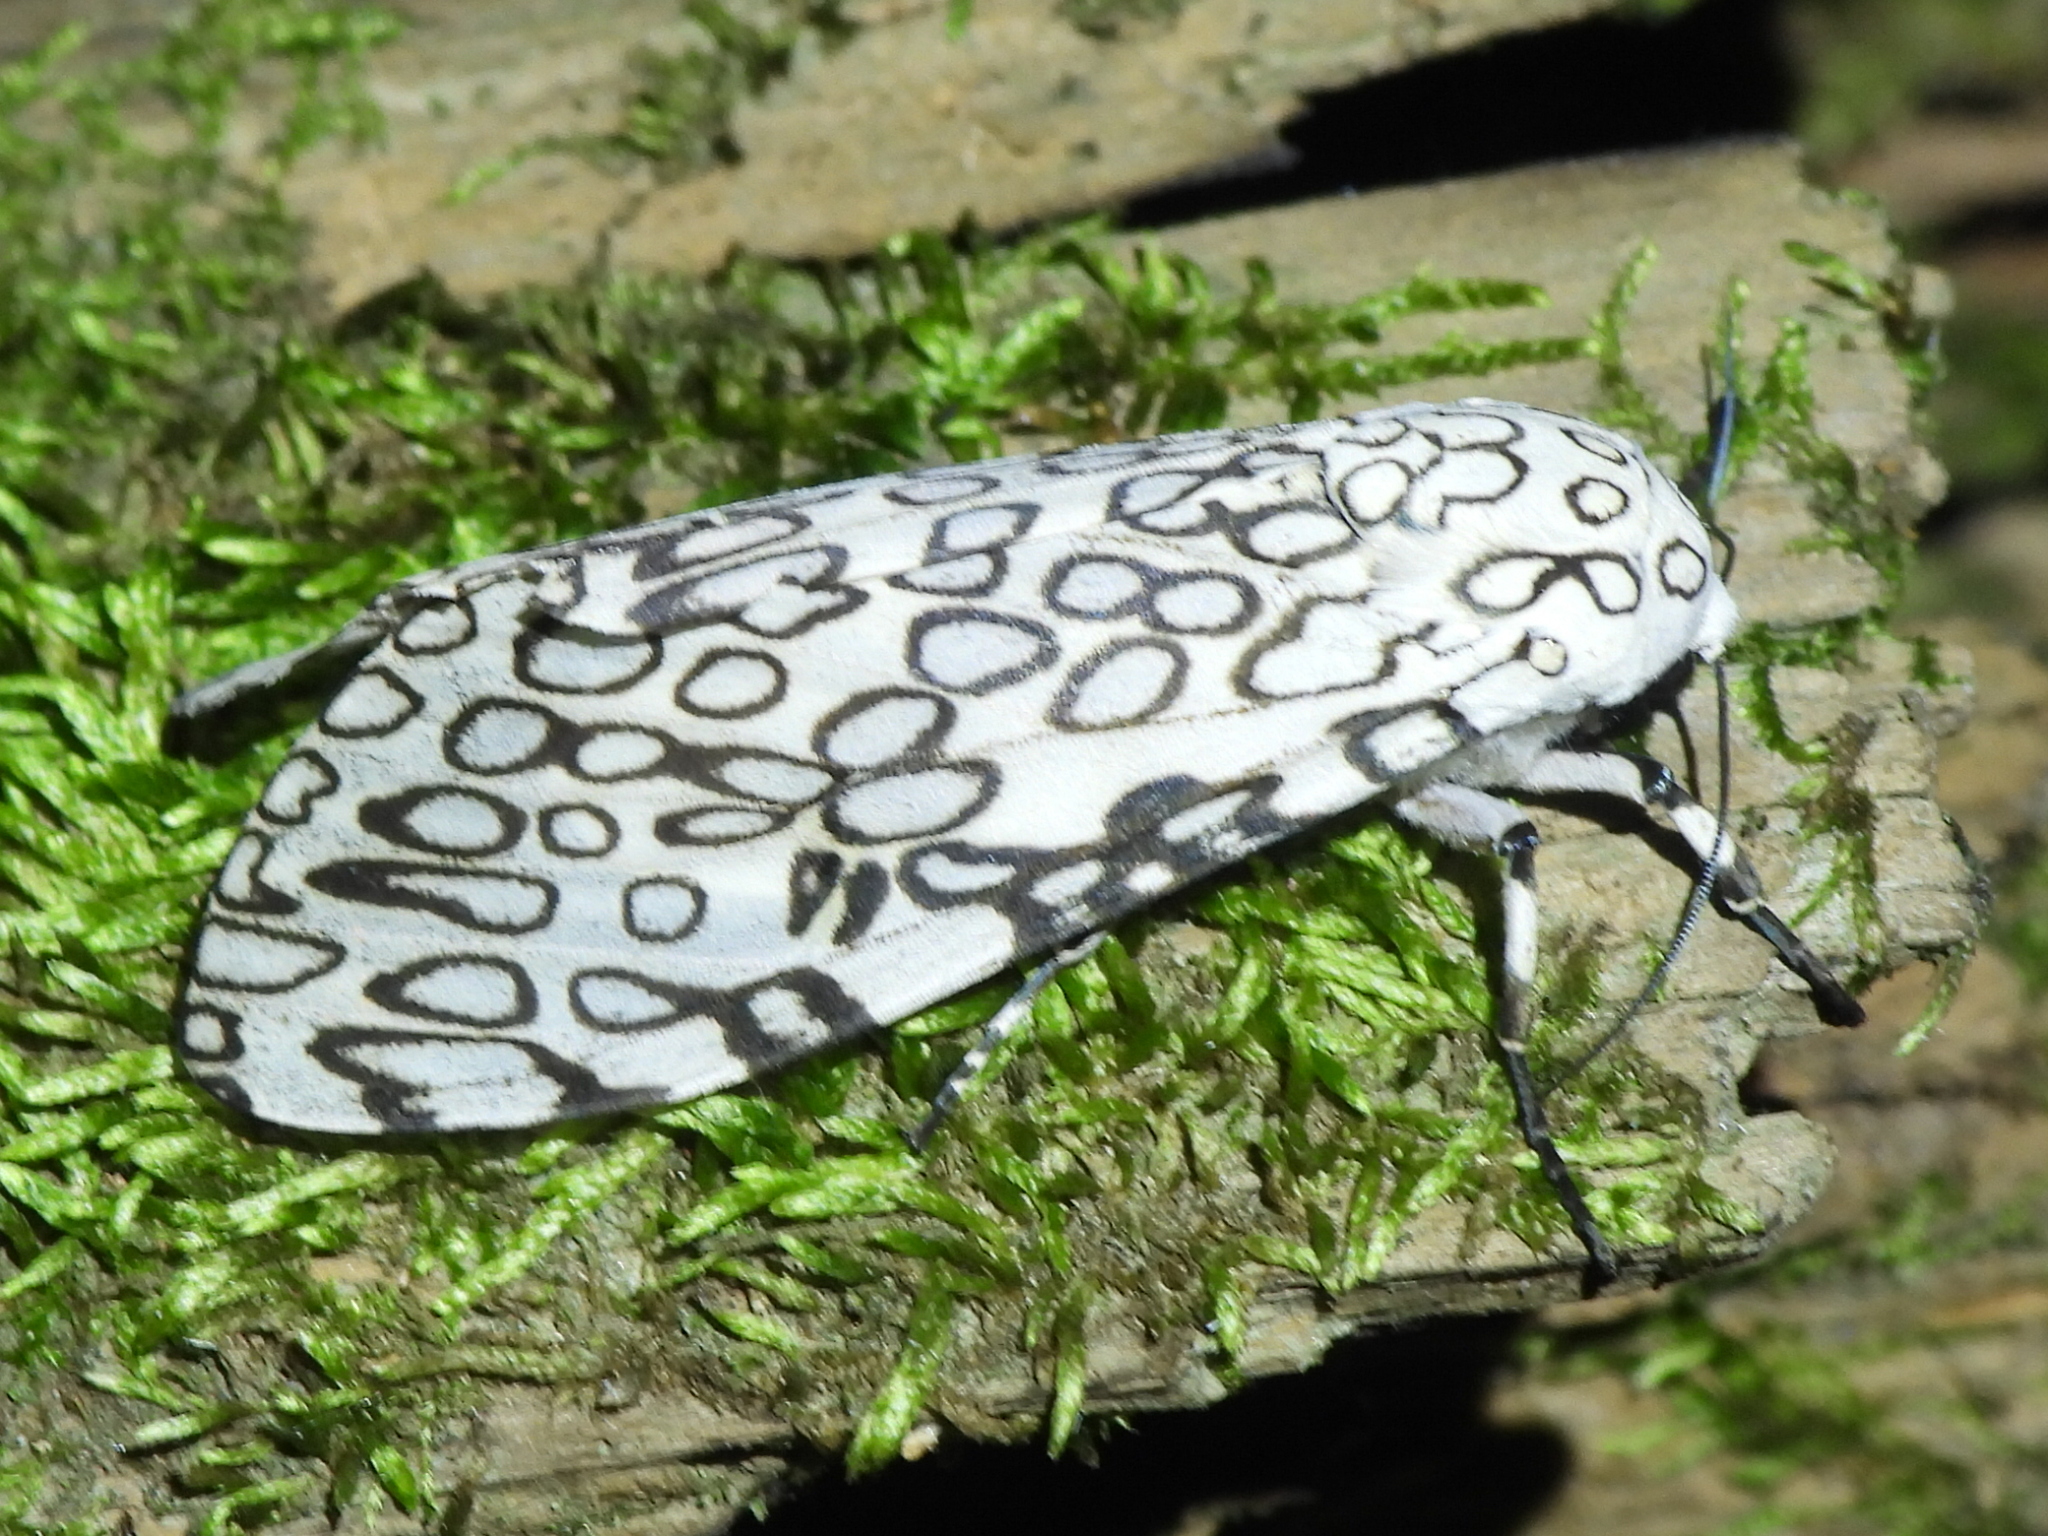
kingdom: Animalia
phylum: Arthropoda
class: Insecta
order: Lepidoptera
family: Erebidae
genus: Hypercompe
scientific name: Hypercompe scribonia
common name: Giant leopard moth
